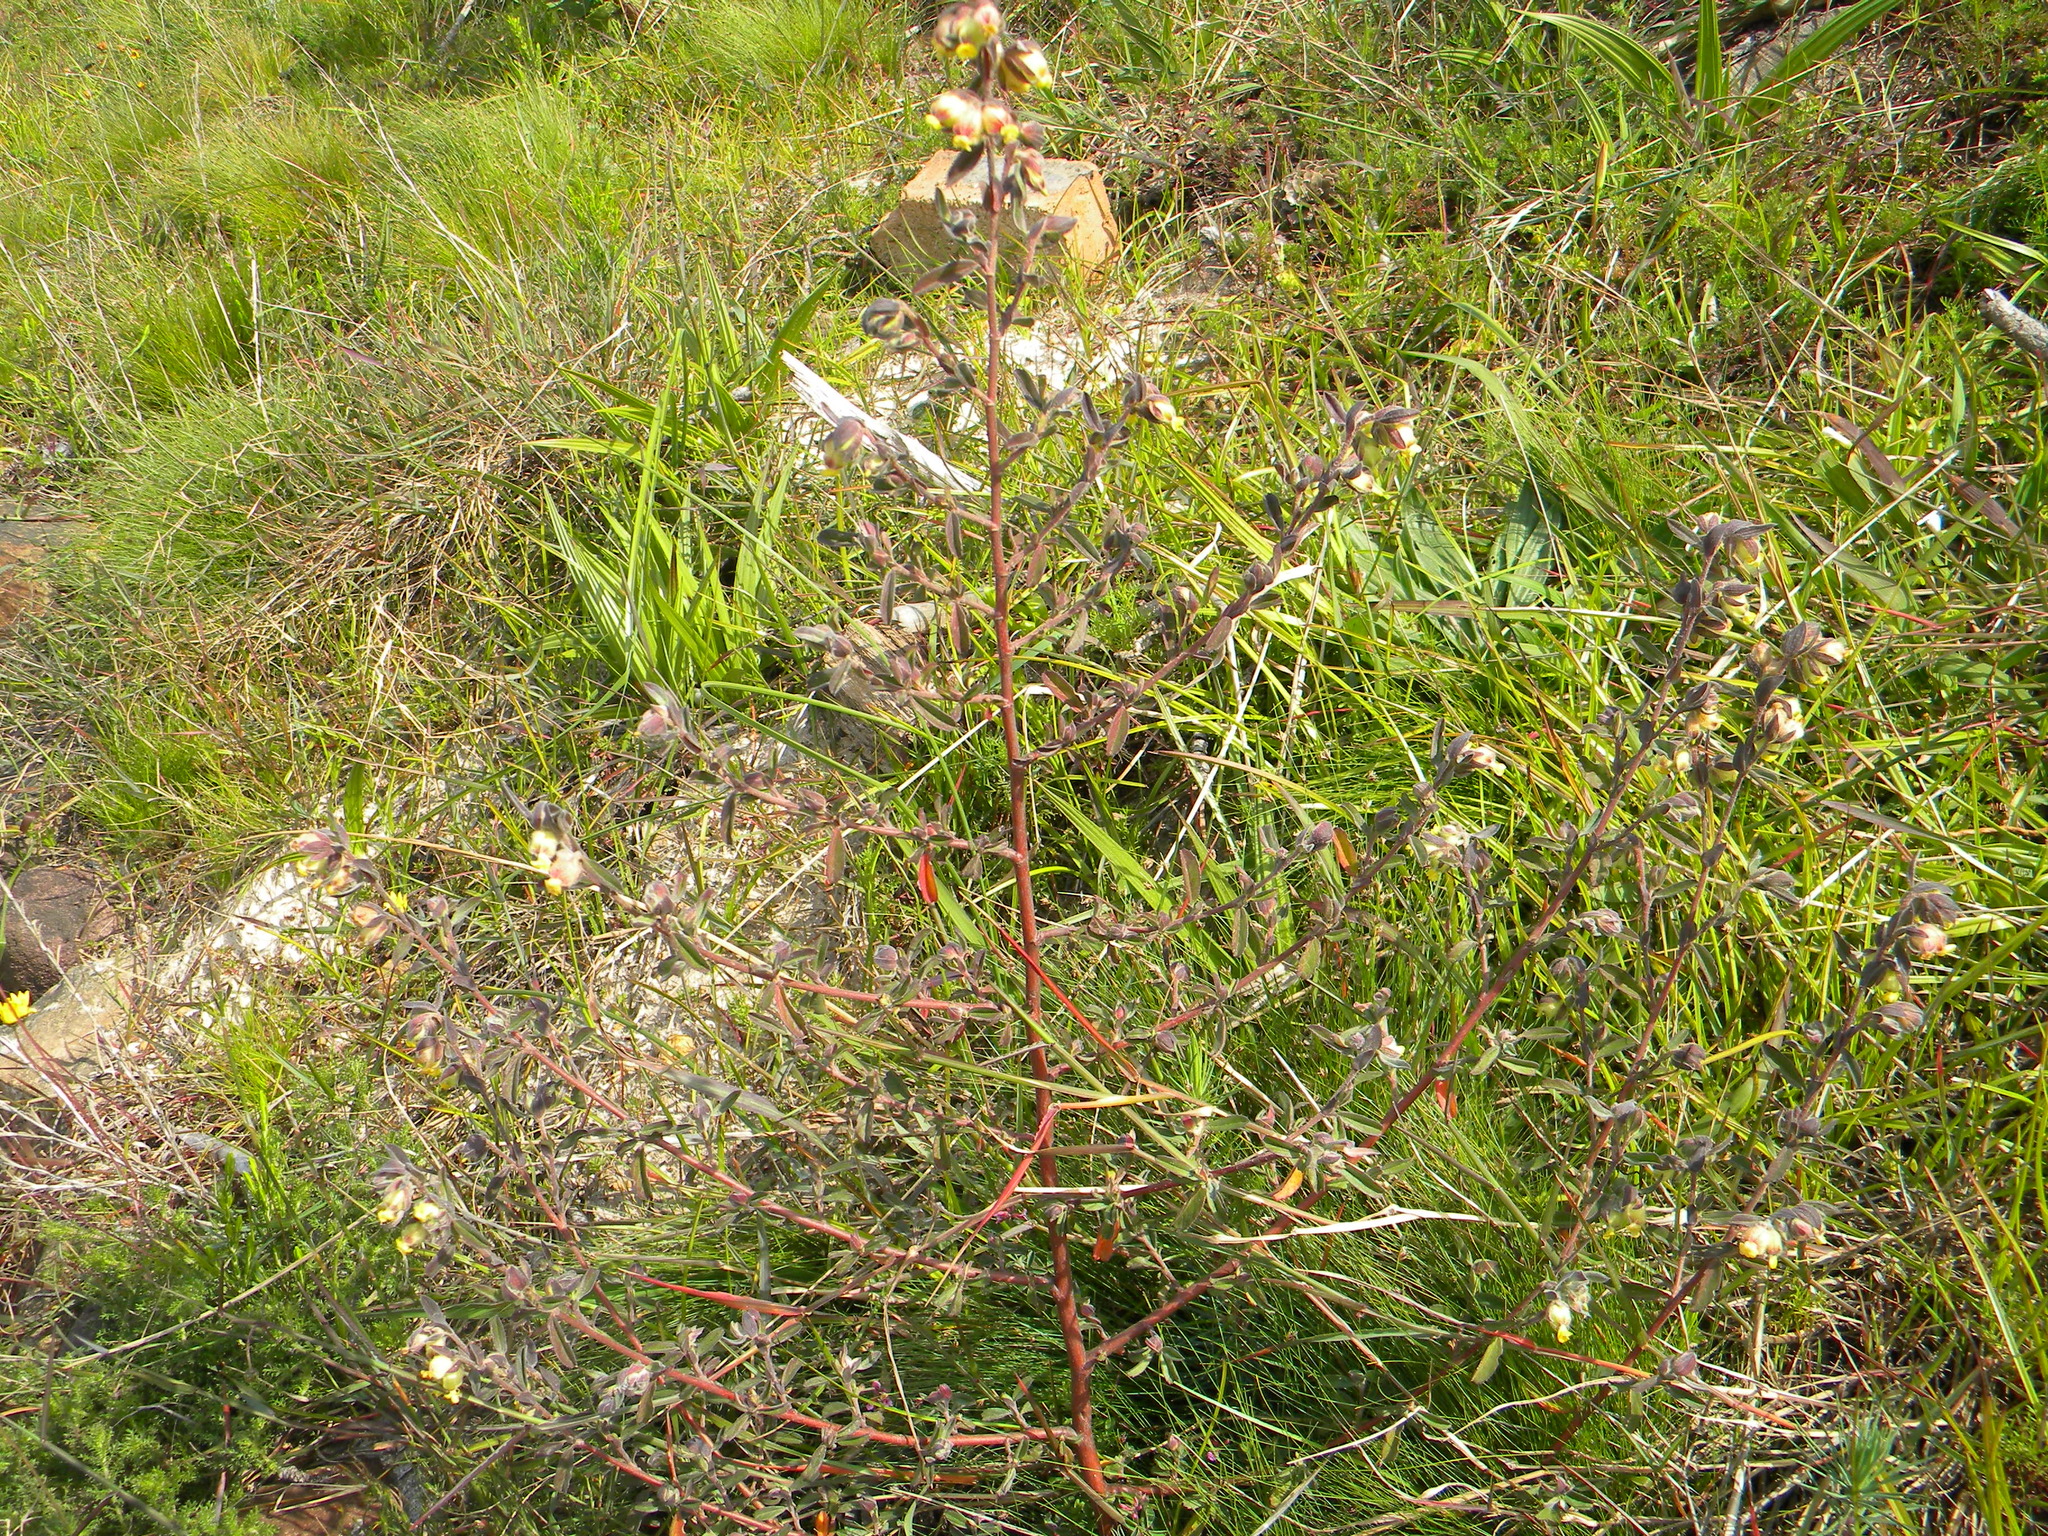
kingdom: Plantae
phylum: Tracheophyta
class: Magnoliopsida
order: Malvales
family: Malvaceae
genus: Hermannia
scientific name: Hermannia hyssopifolia
